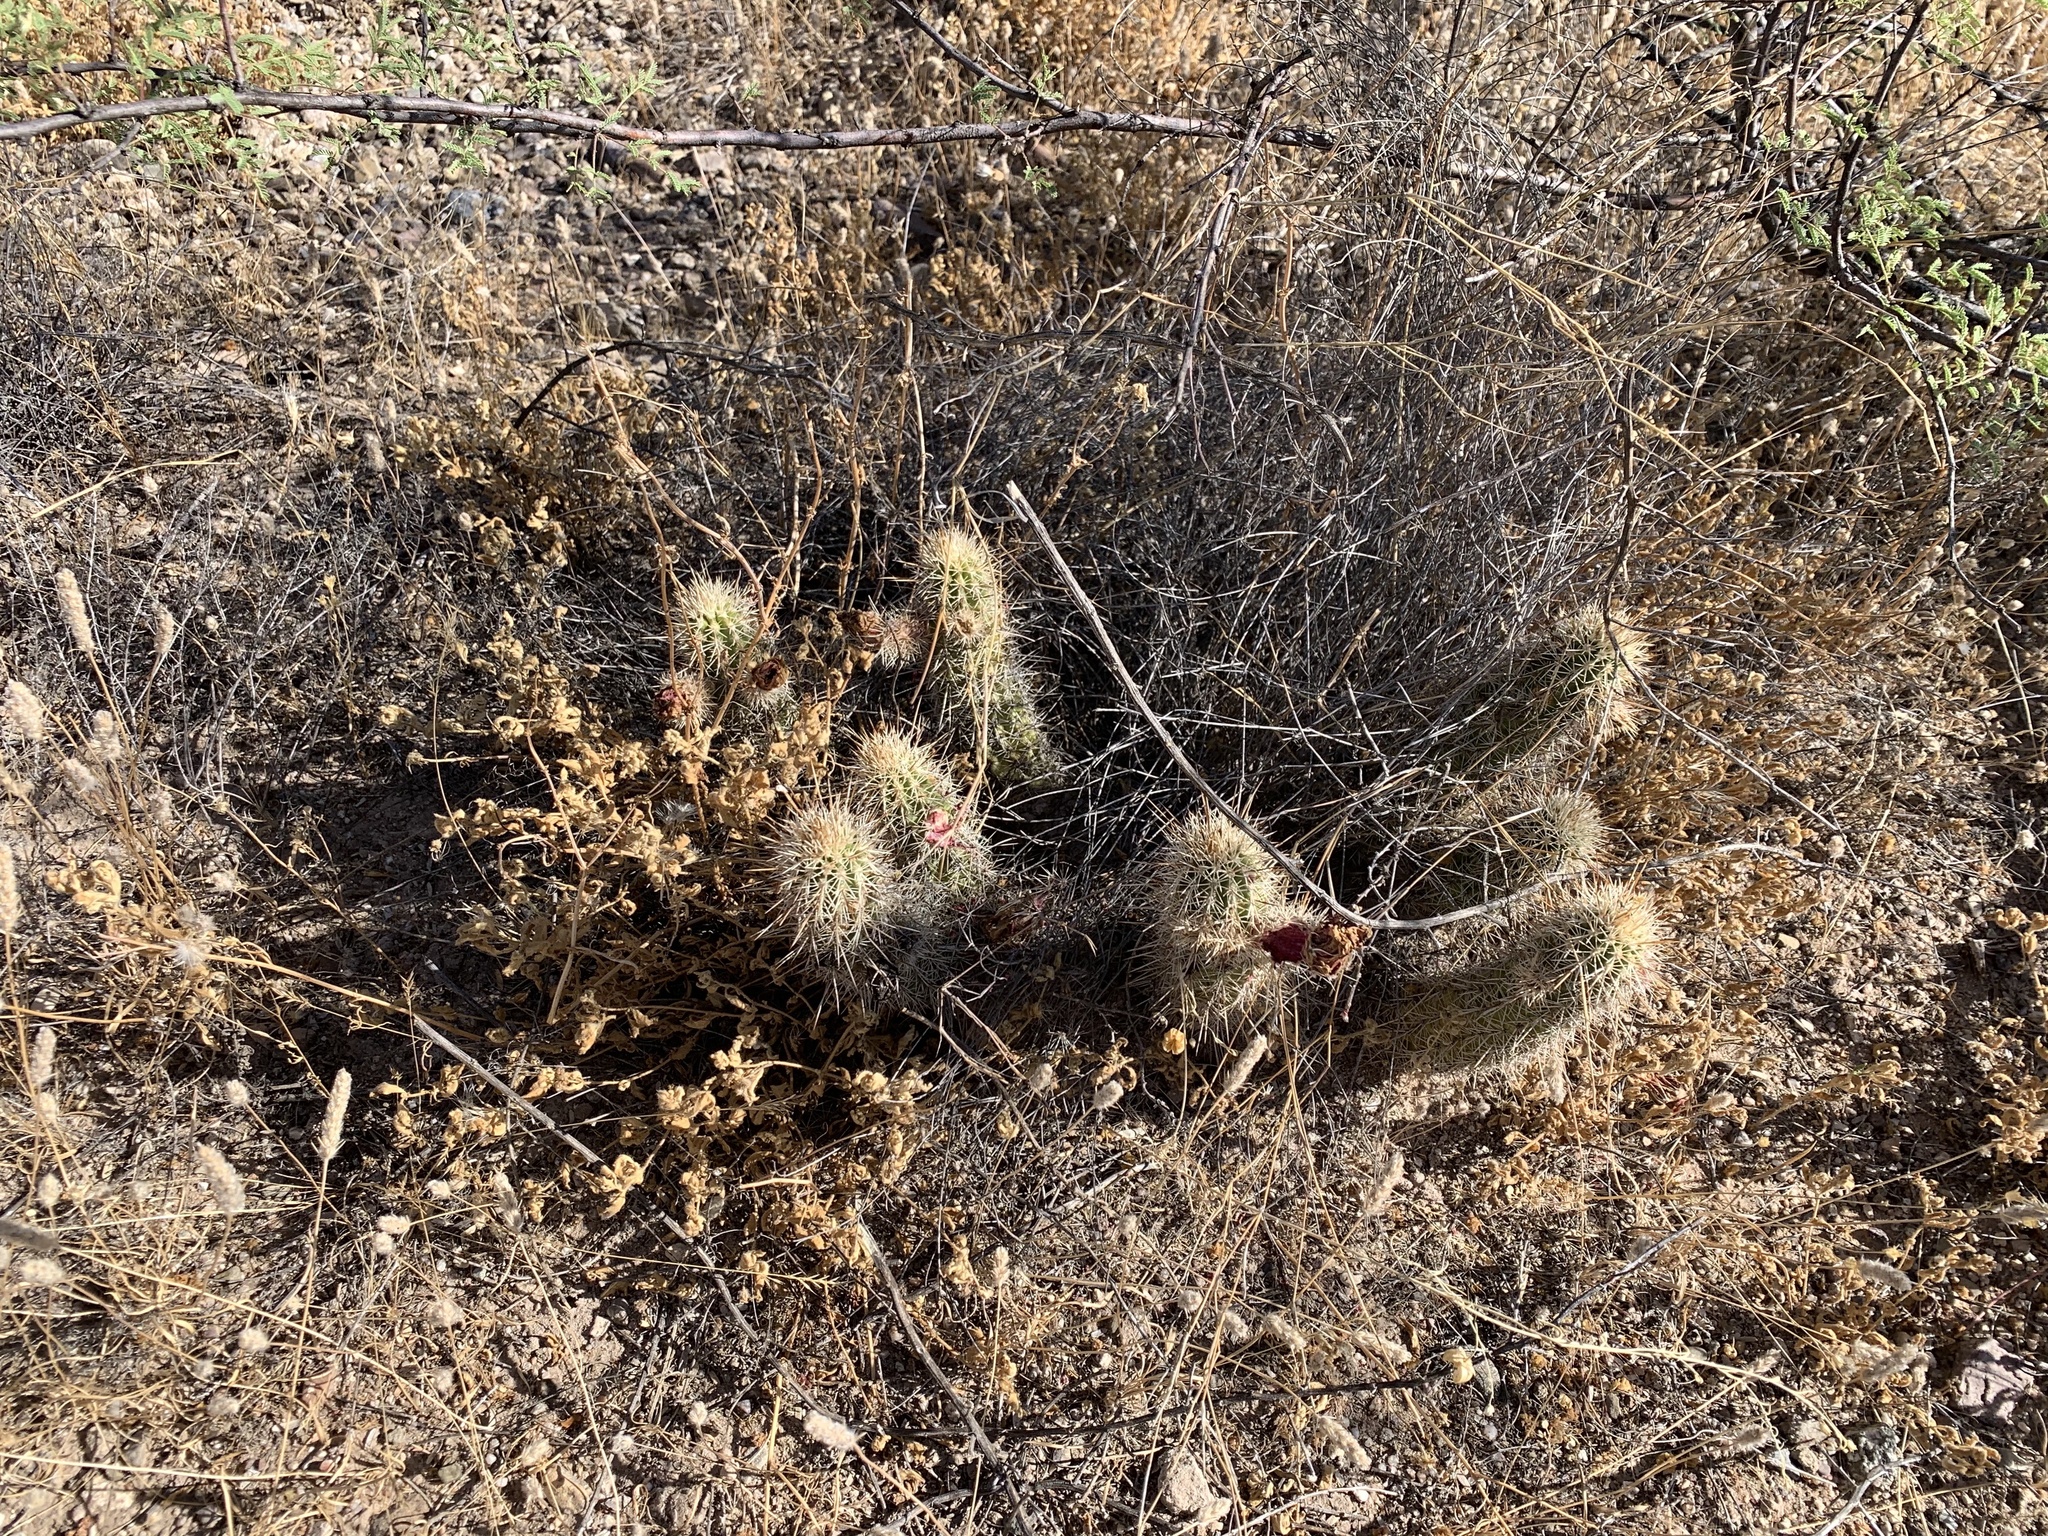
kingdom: Plantae
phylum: Tracheophyta
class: Magnoliopsida
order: Caryophyllales
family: Cactaceae
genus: Echinocereus
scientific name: Echinocereus fasciculatus
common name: Bundle hedgehog
